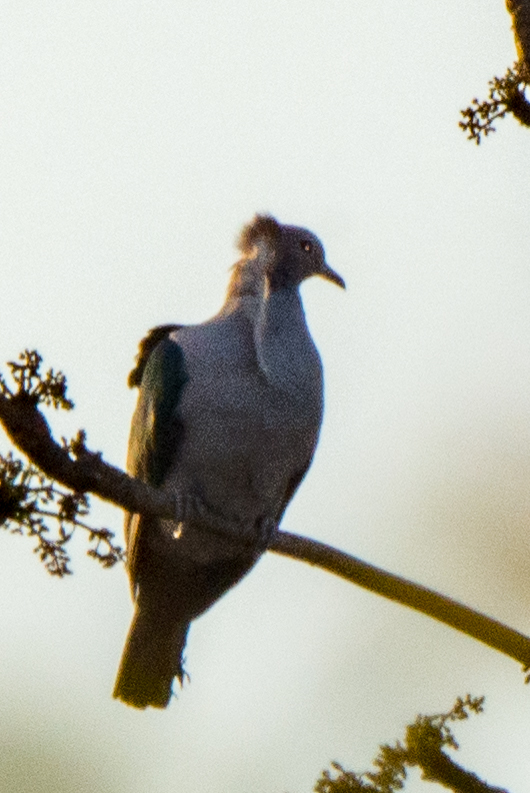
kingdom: Animalia
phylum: Chordata
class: Aves
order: Columbiformes
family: Columbidae
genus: Ducula
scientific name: Ducula aenea
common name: Green imperial pigeon
